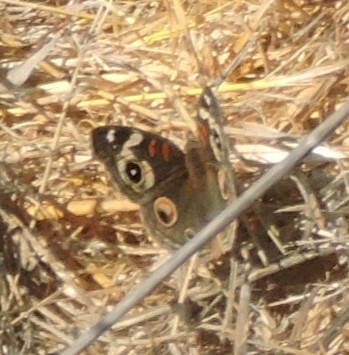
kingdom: Animalia
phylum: Arthropoda
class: Insecta
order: Lepidoptera
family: Nymphalidae
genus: Junonia
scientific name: Junonia grisea
